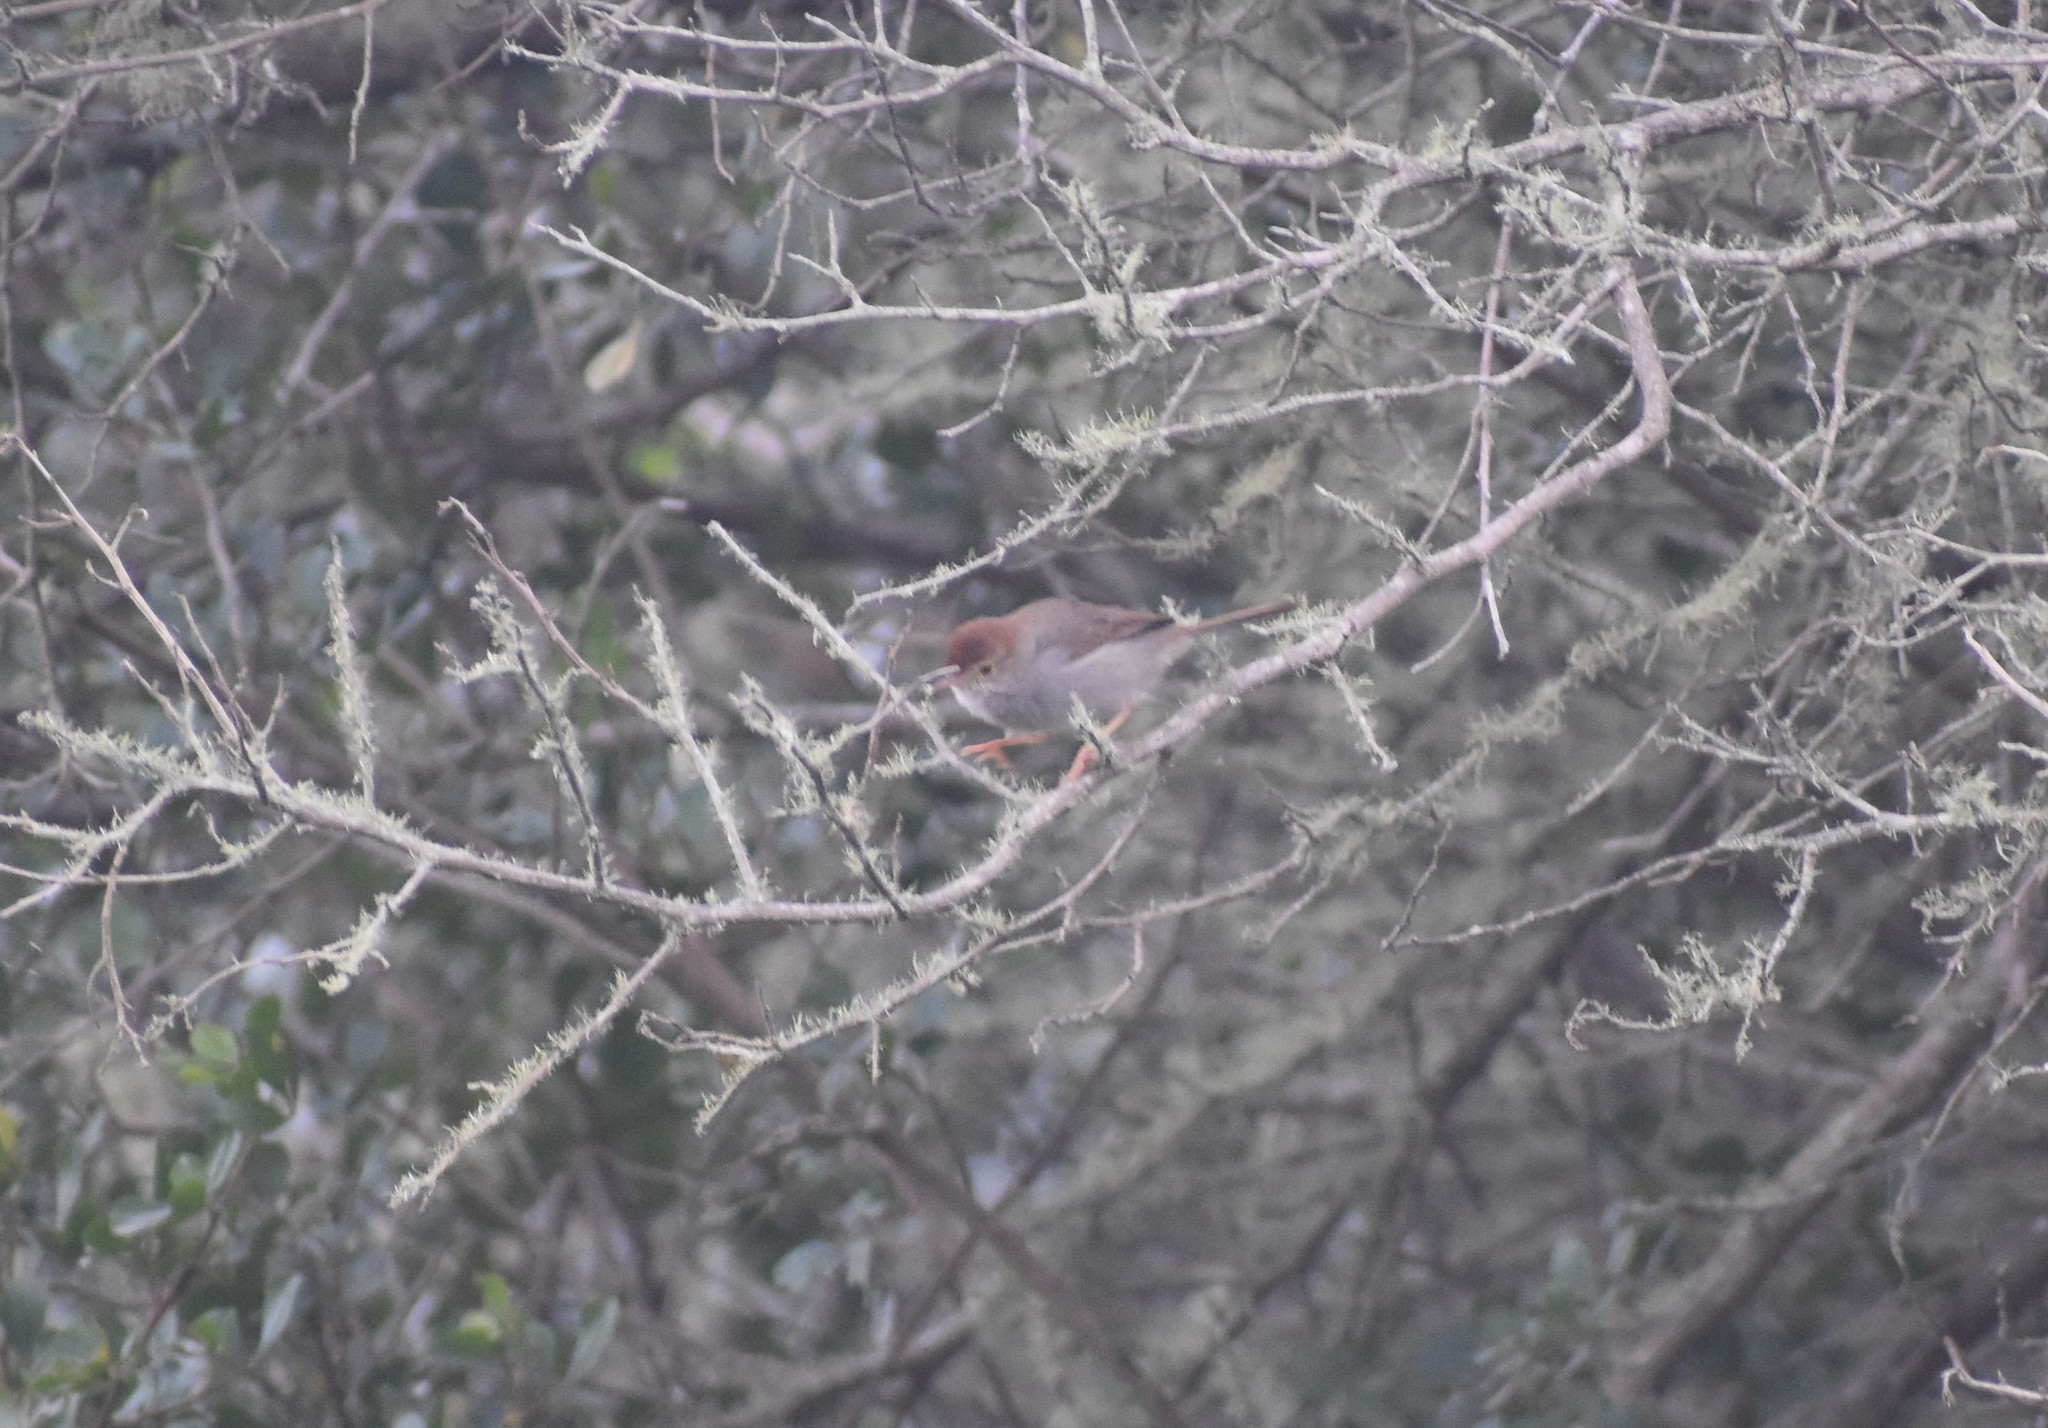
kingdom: Animalia
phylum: Chordata
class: Aves
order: Passeriformes
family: Cisticolidae
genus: Cisticola
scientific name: Cisticola fulvicapilla
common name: Neddicky
